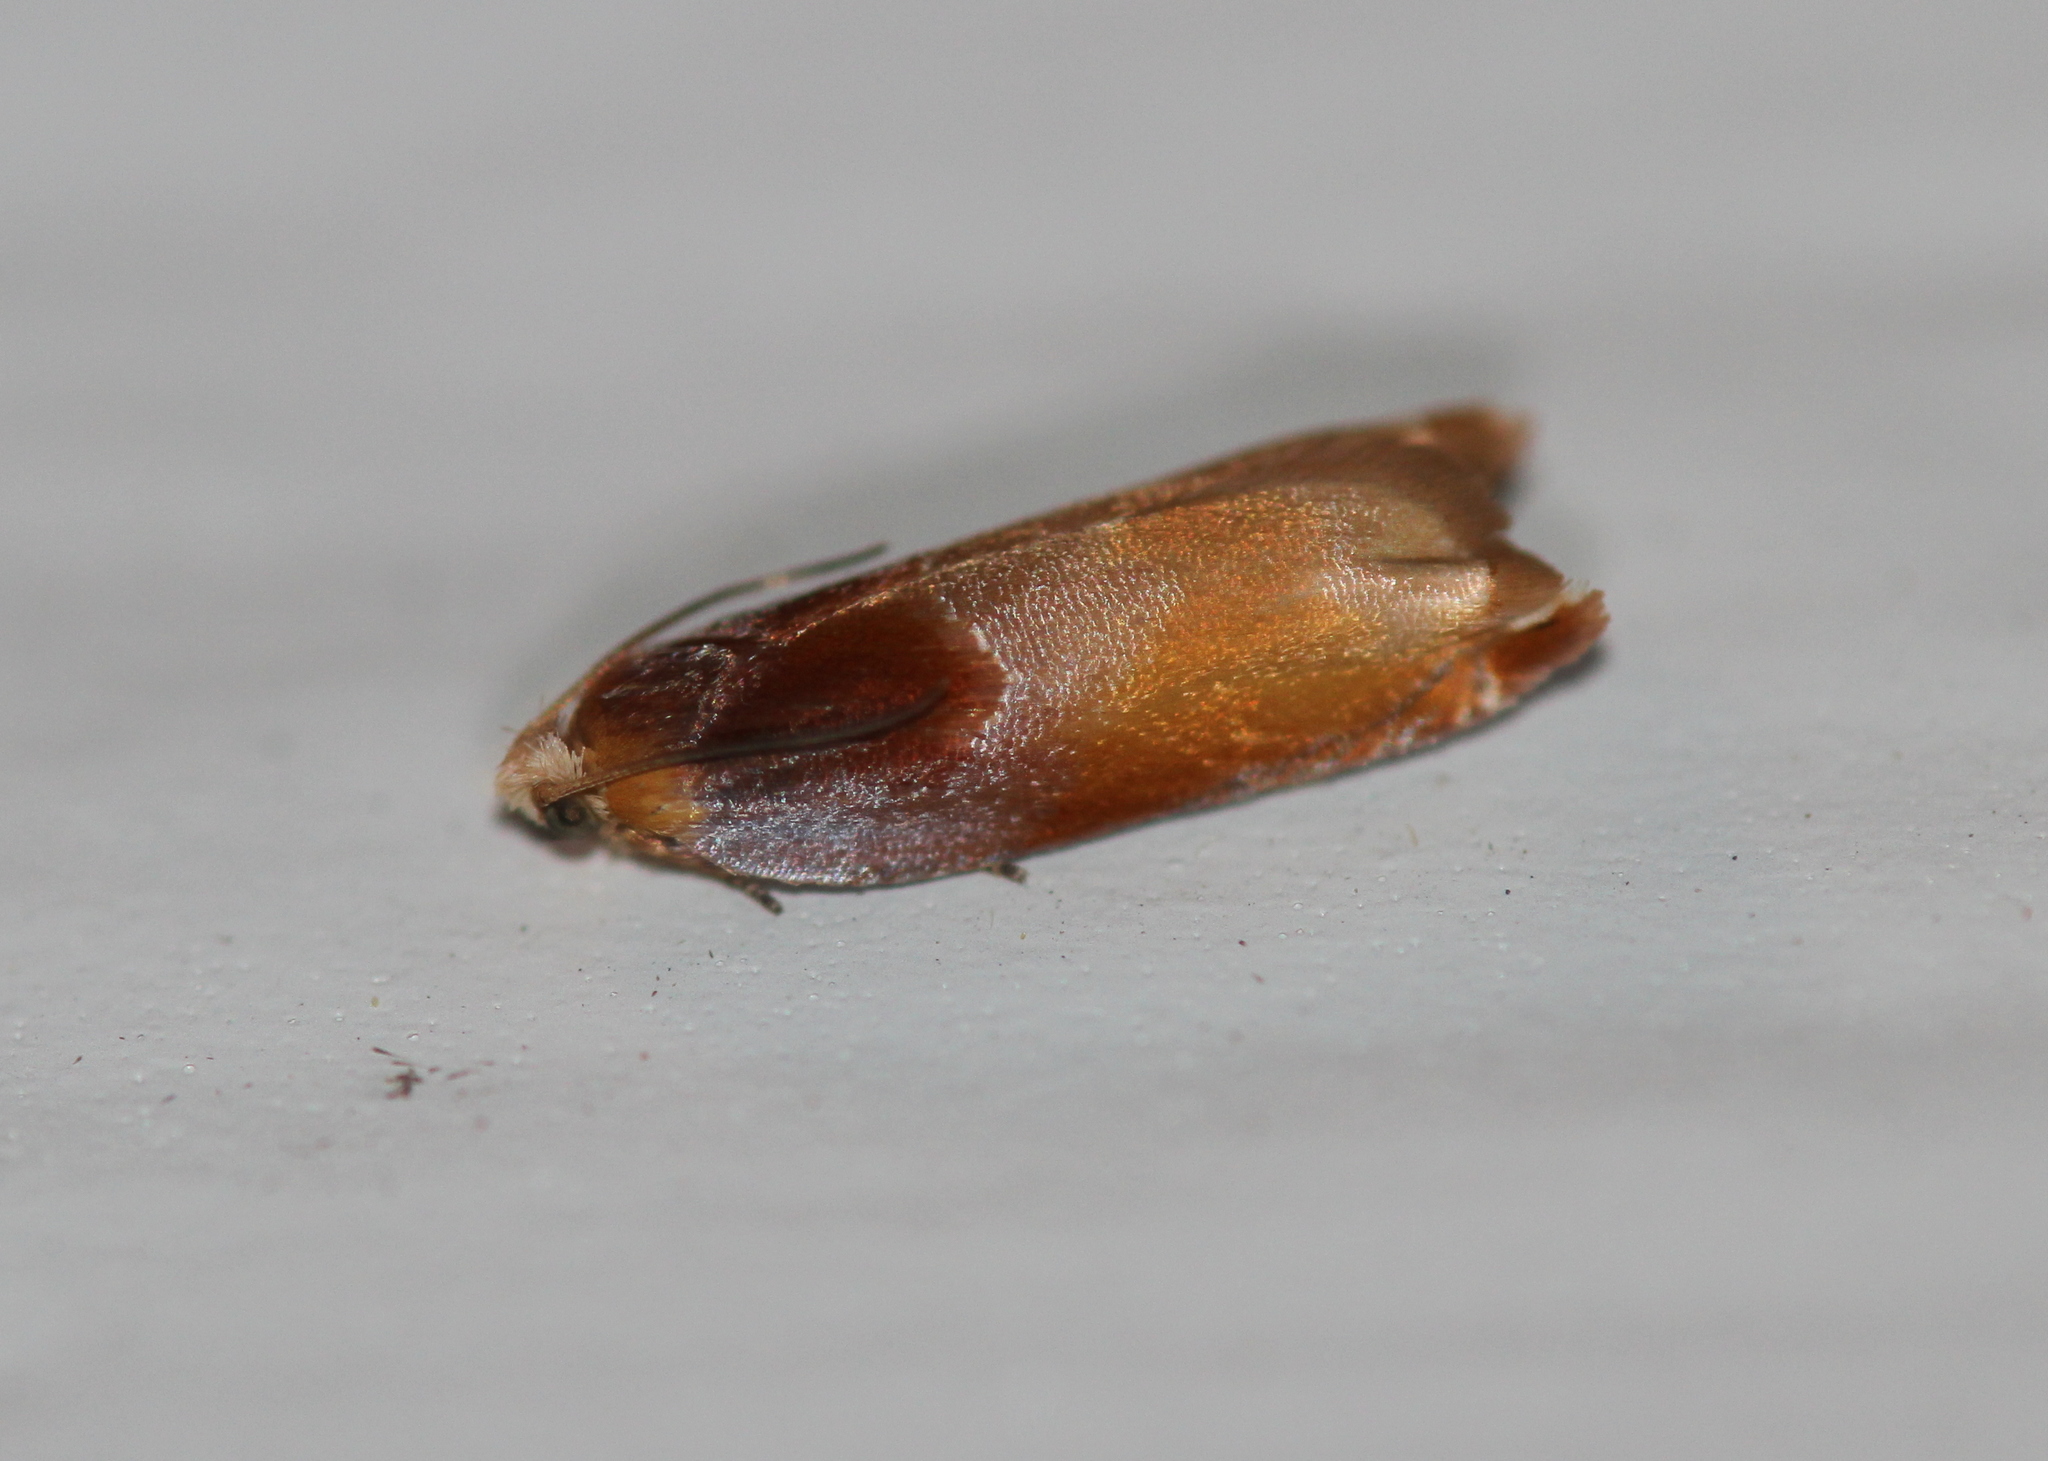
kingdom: Animalia
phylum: Arthropoda
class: Insecta
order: Lepidoptera
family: Tortricidae
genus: Ancylis
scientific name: Ancylis divisana
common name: Two-toned ancylis moth
